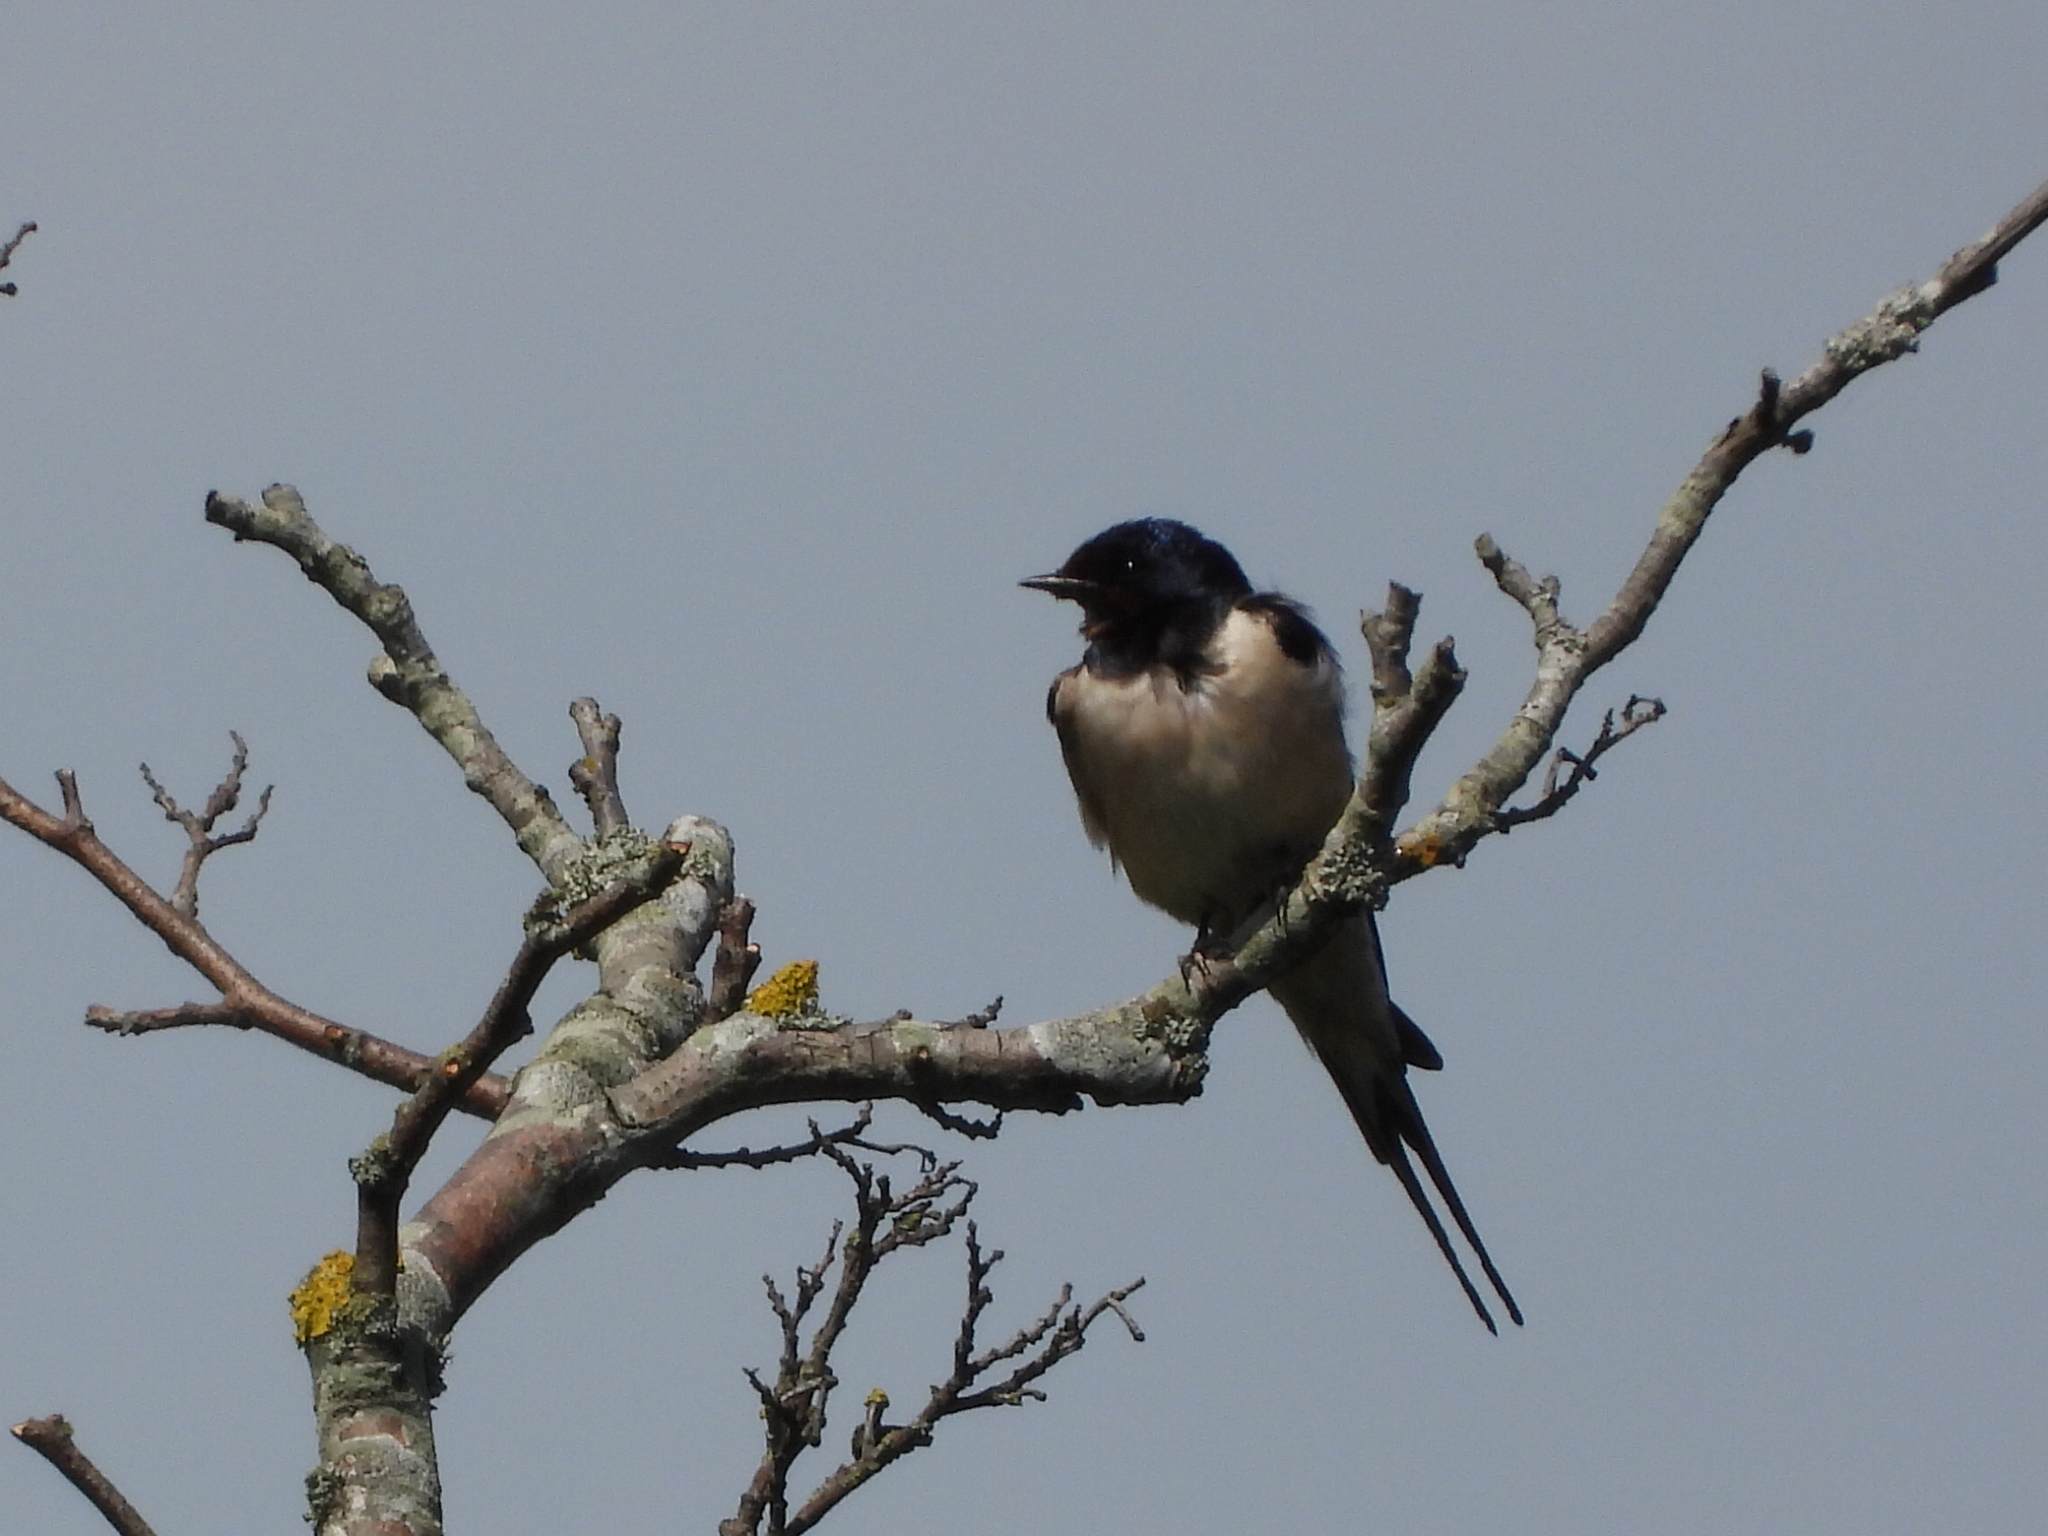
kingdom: Animalia
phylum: Chordata
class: Aves
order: Passeriformes
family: Hirundinidae
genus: Hirundo
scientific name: Hirundo rustica
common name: Barn swallow
